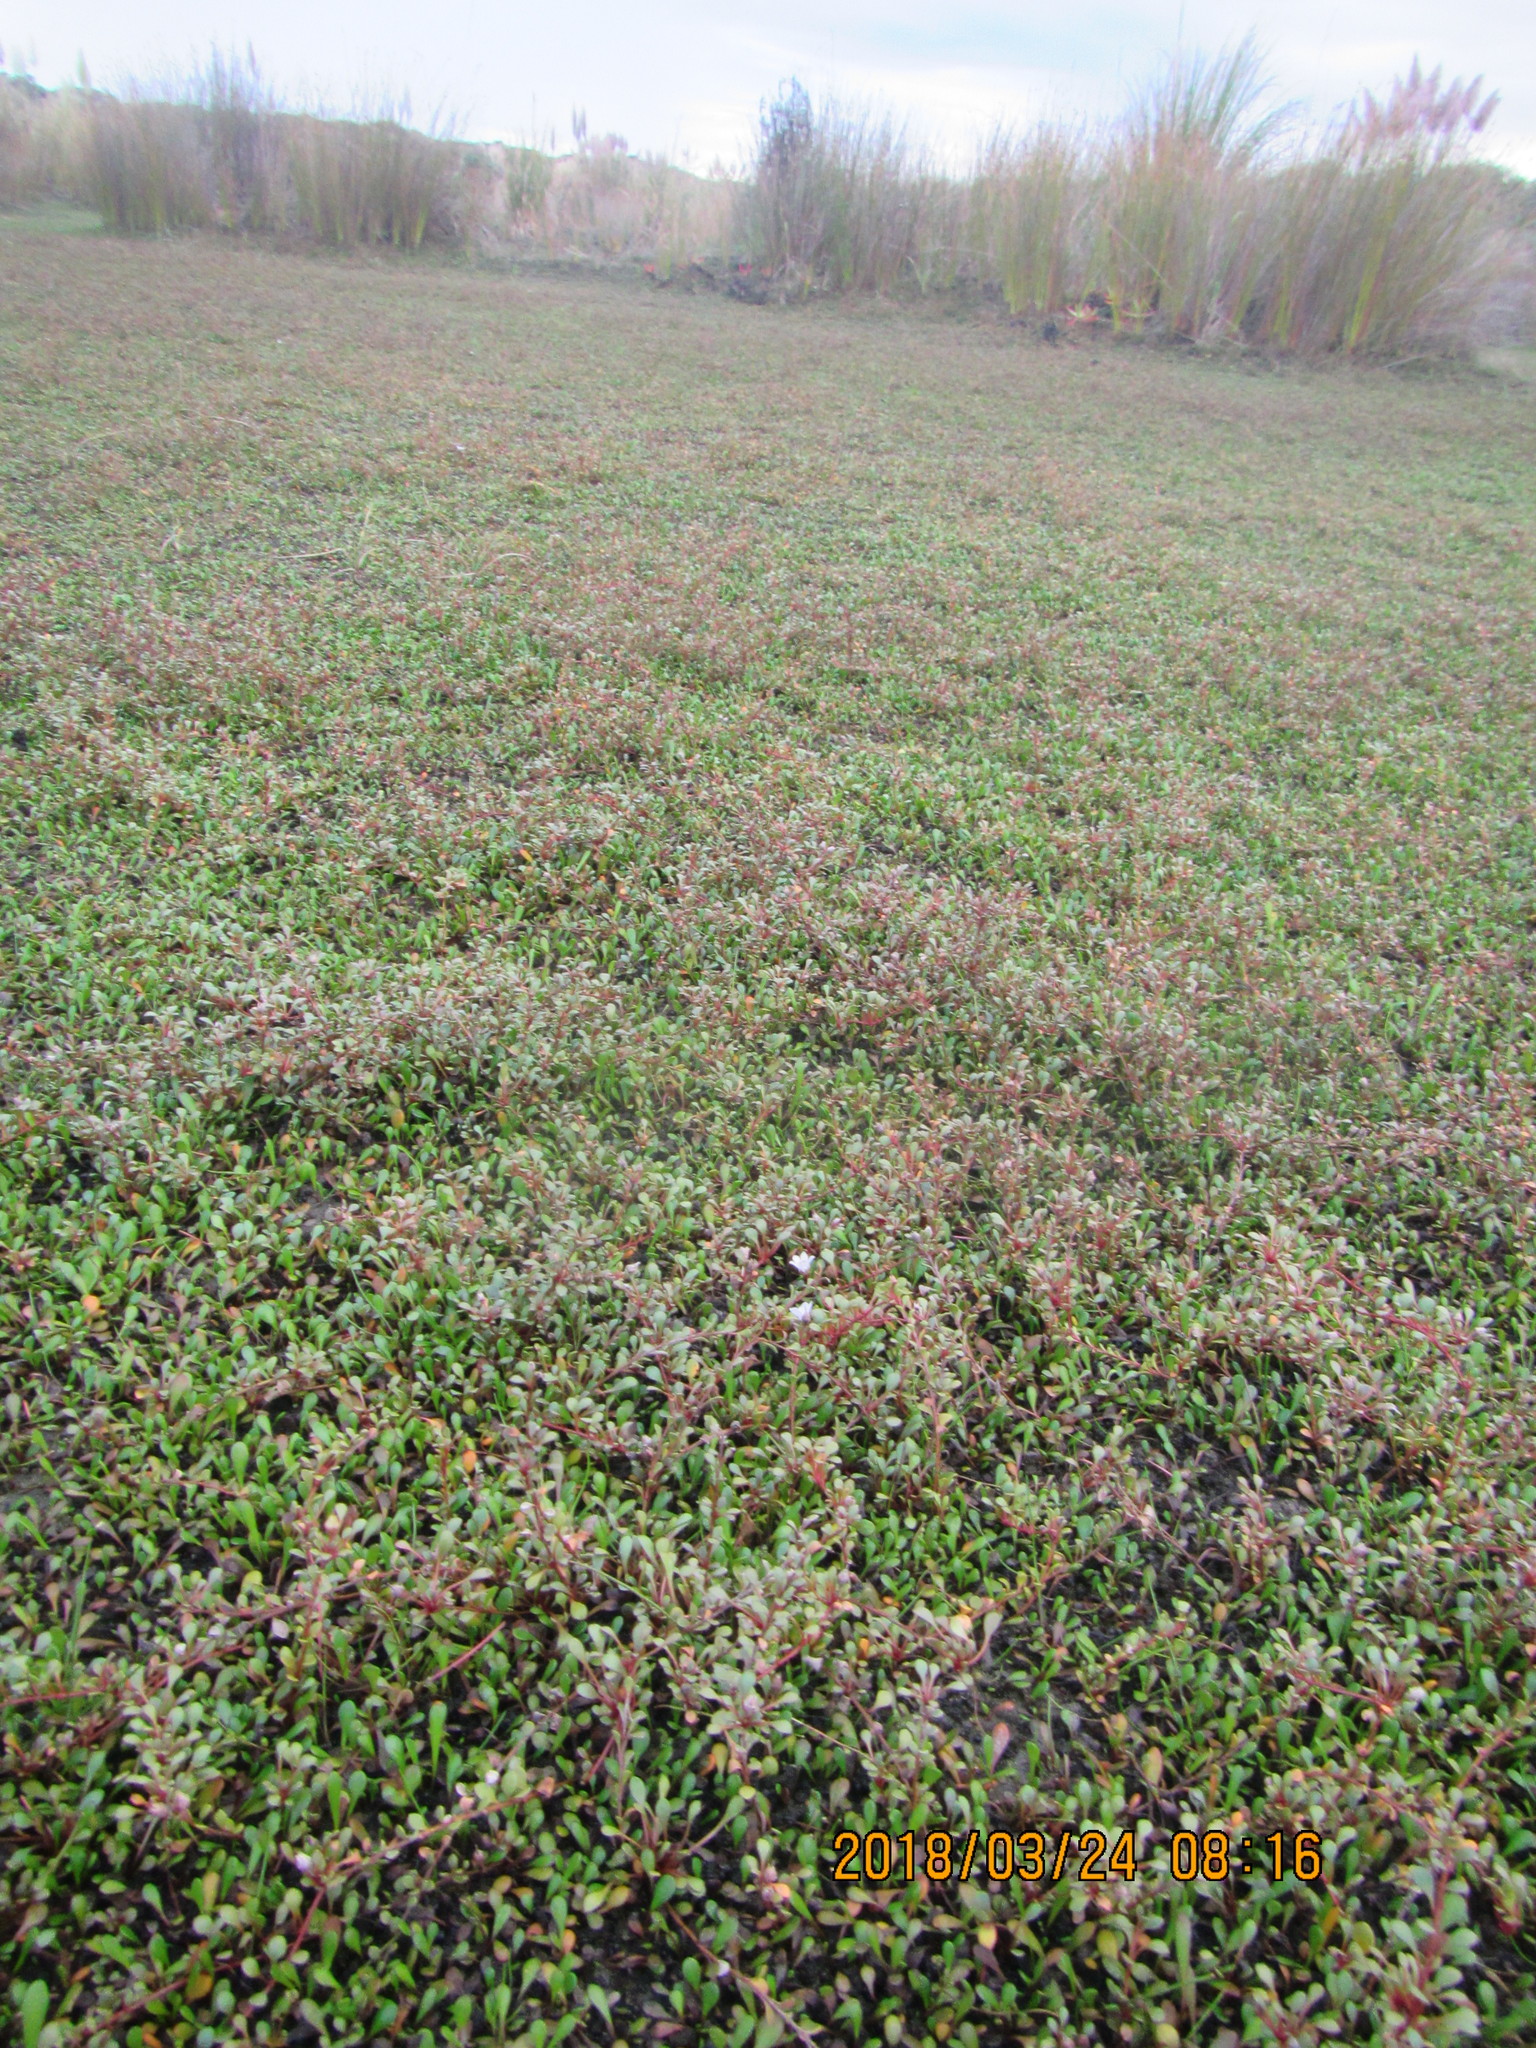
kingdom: Plantae
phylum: Tracheophyta
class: Magnoliopsida
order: Ericales
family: Primulaceae
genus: Samolus
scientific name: Samolus repens
